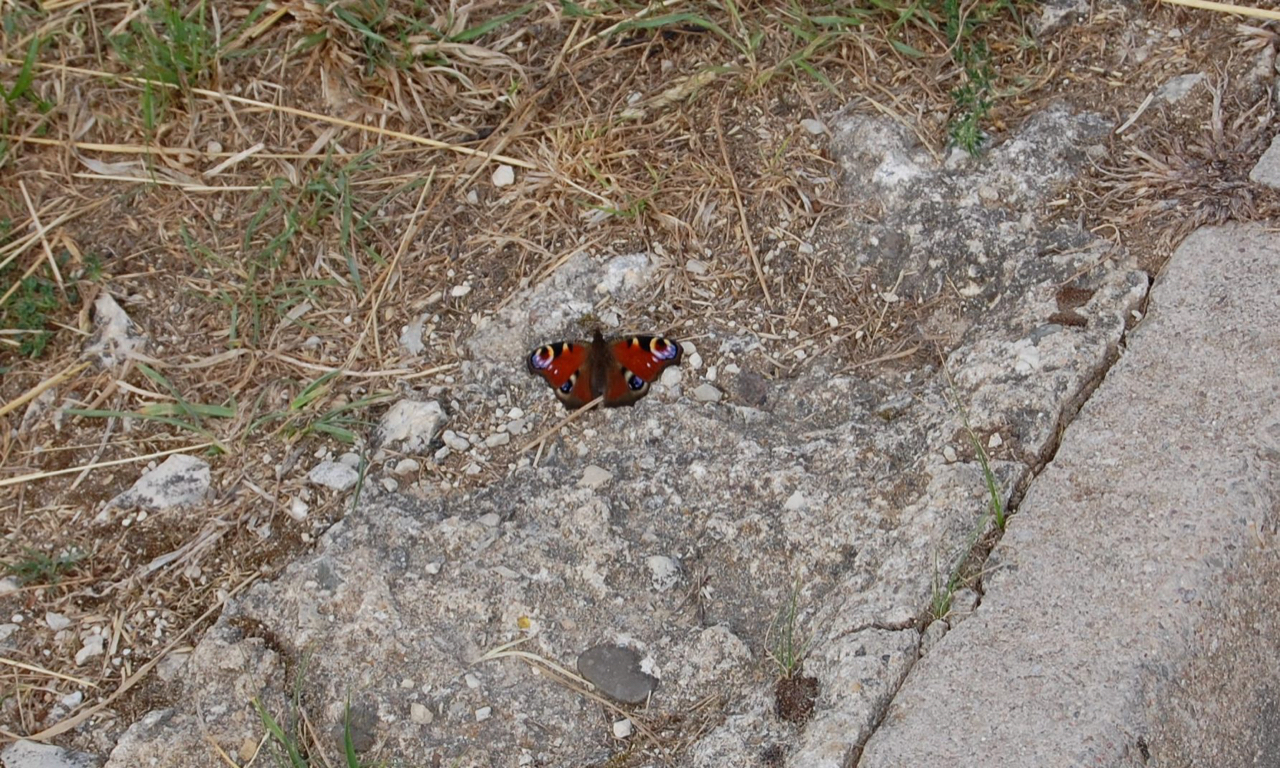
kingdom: Animalia
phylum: Arthropoda
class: Insecta
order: Lepidoptera
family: Nymphalidae
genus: Aglais
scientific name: Aglais io
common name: Peacock
